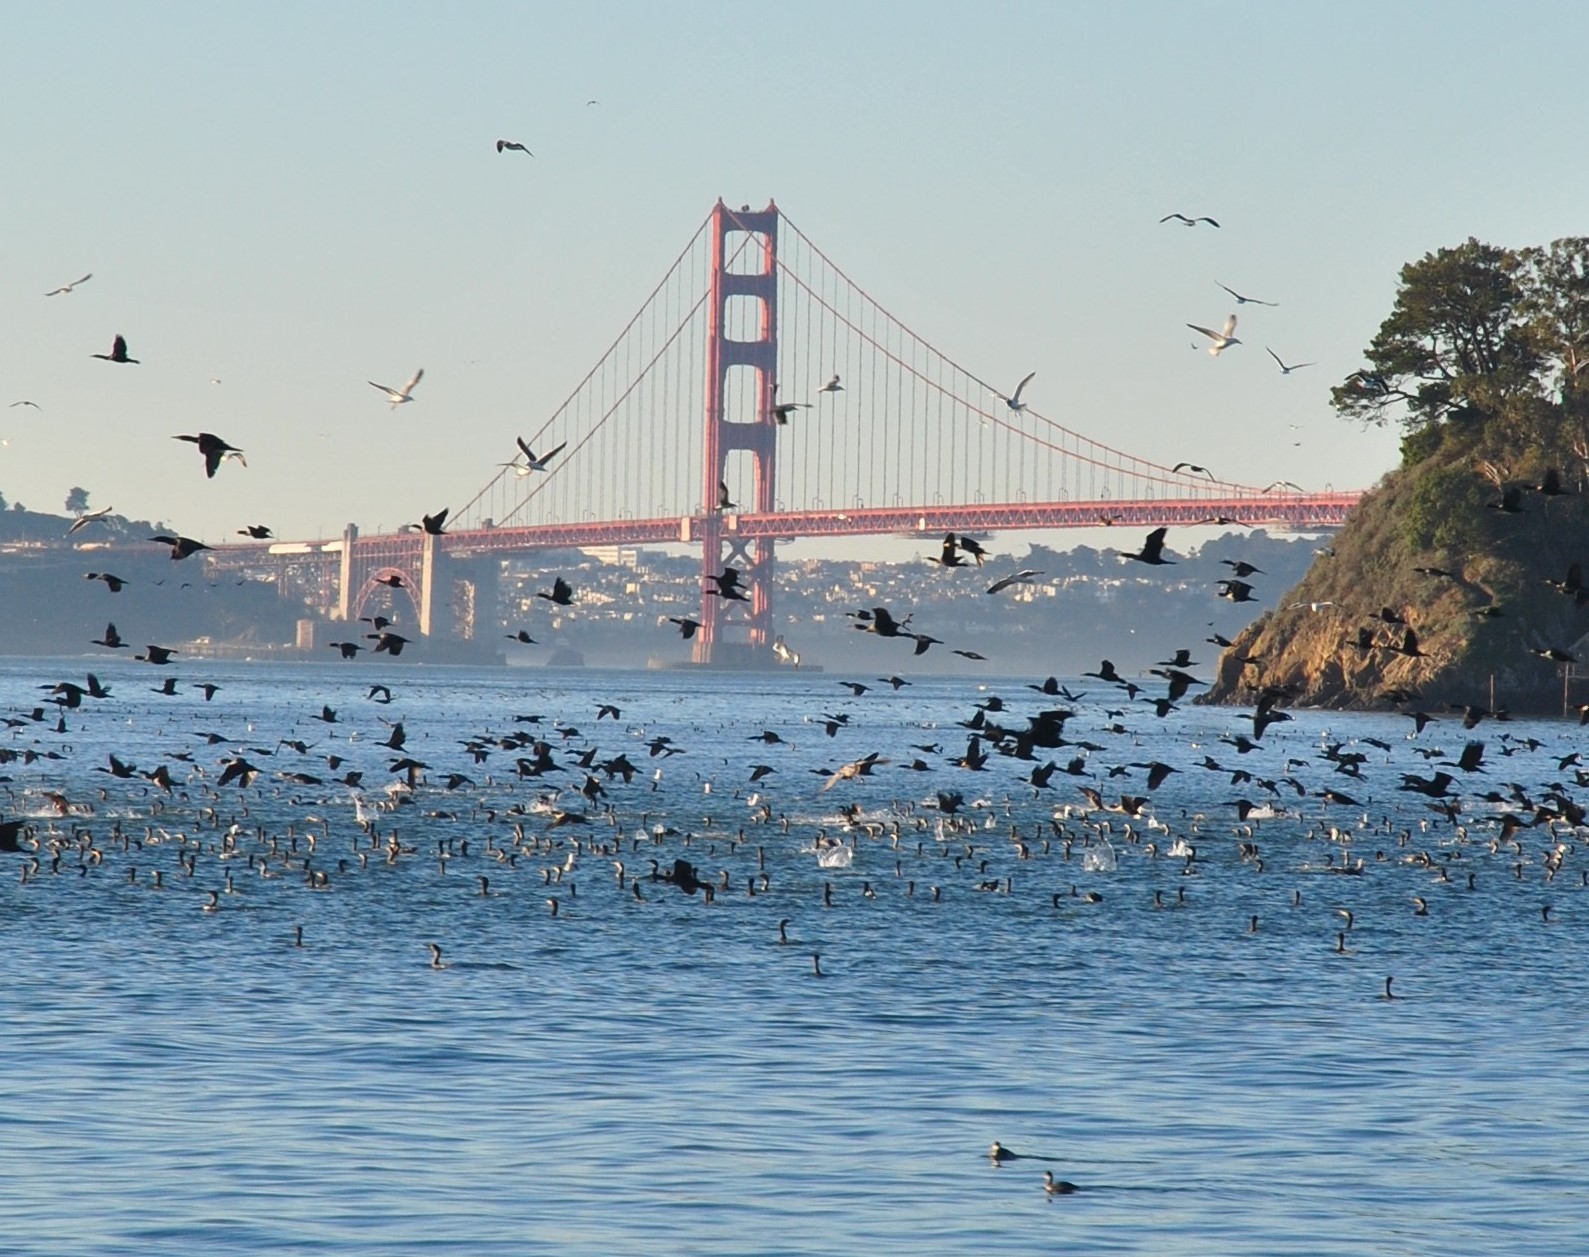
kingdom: Animalia
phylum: Chordata
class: Aves
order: Suliformes
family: Phalacrocoracidae
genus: Phalacrocorax
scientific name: Phalacrocorax auritus
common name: Double-crested cormorant
